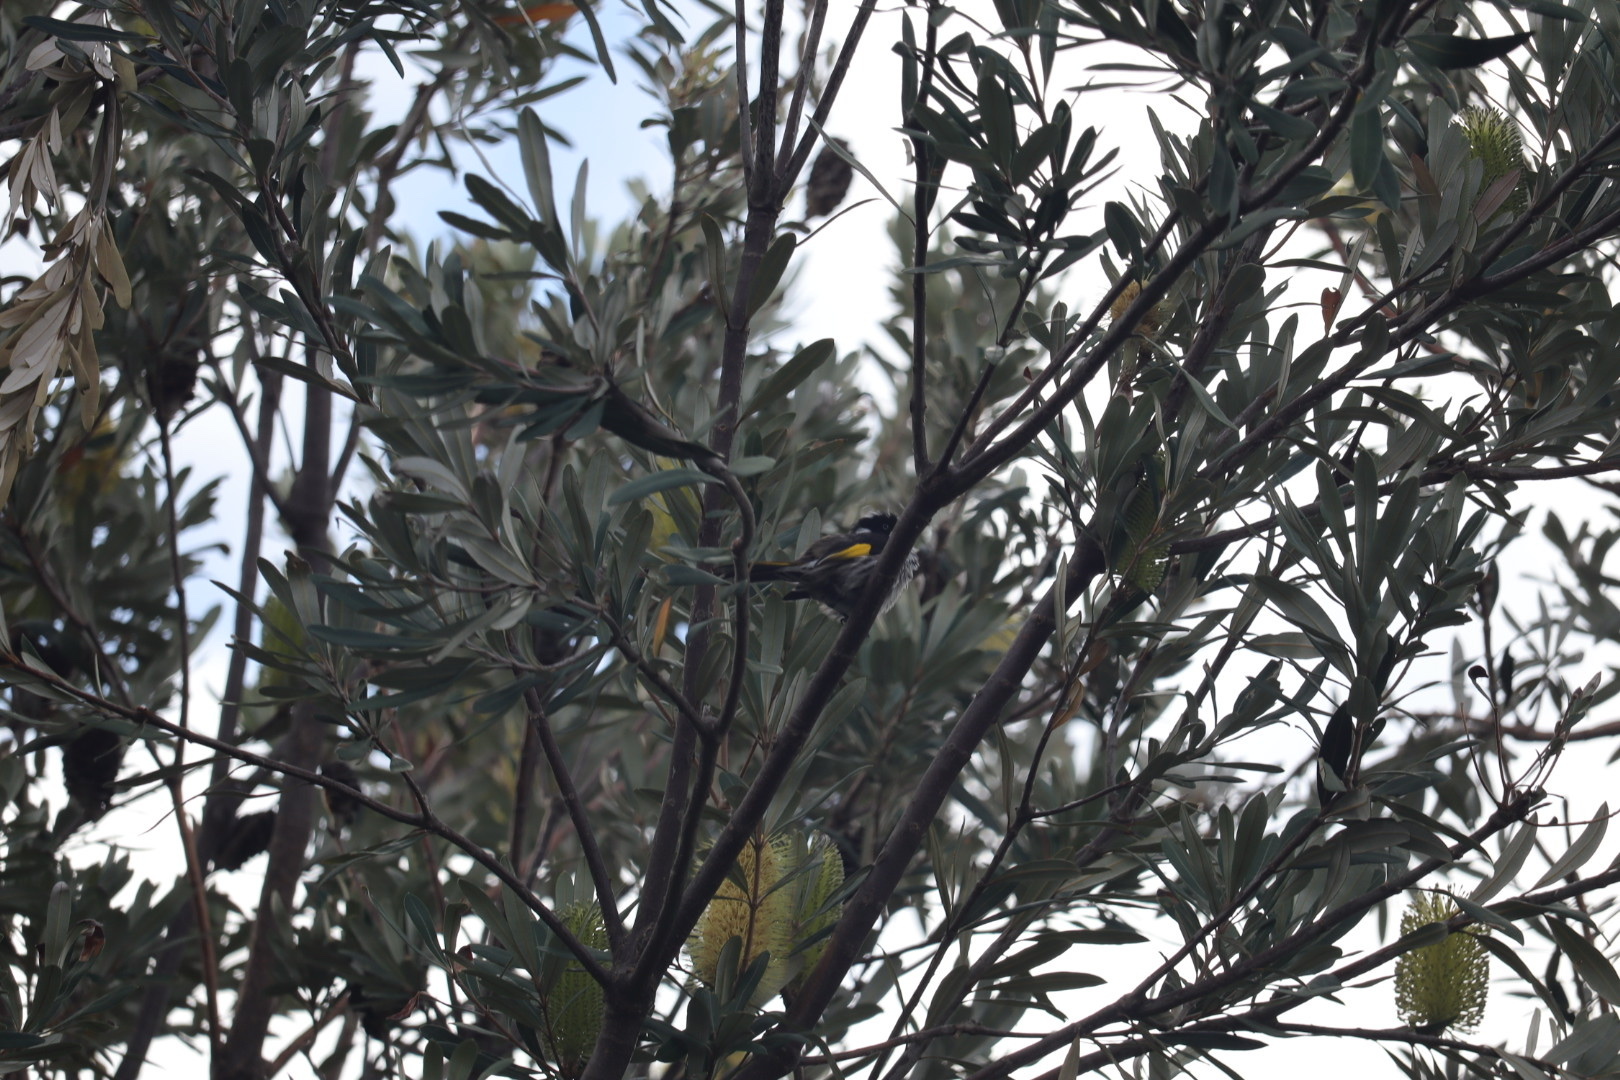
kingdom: Animalia
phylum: Chordata
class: Aves
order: Passeriformes
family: Meliphagidae
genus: Phylidonyris
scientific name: Phylidonyris novaehollandiae
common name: New holland honeyeater
